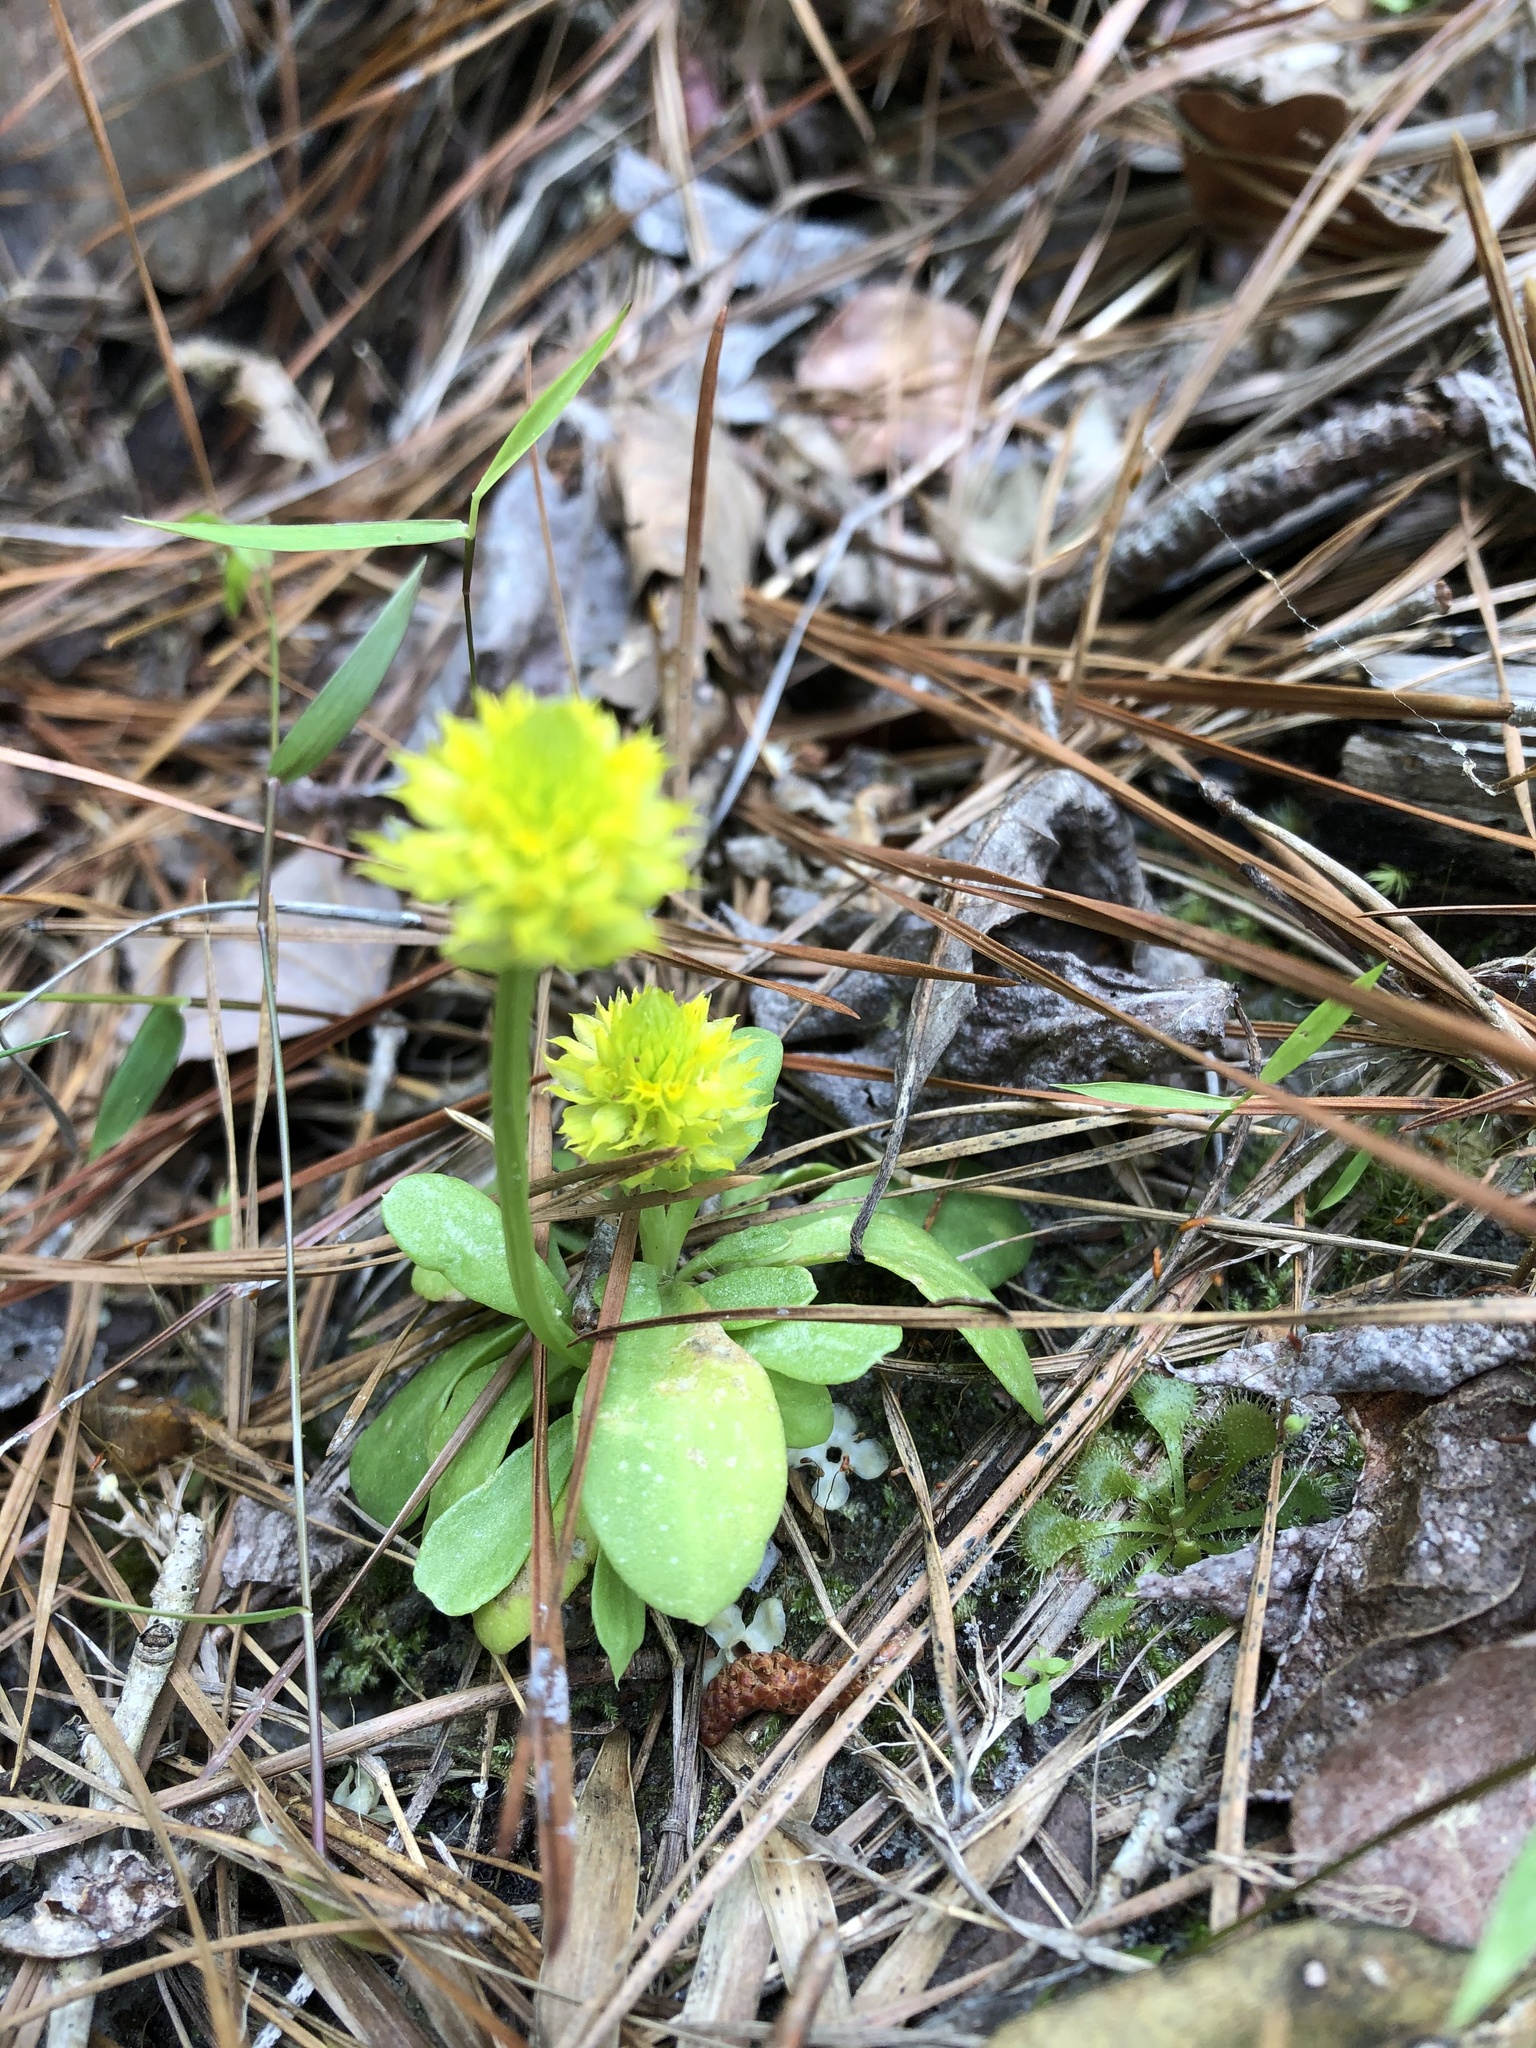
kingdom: Plantae
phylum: Tracheophyta
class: Magnoliopsida
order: Fabales
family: Polygalaceae
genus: Polygala
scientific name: Polygala nana
